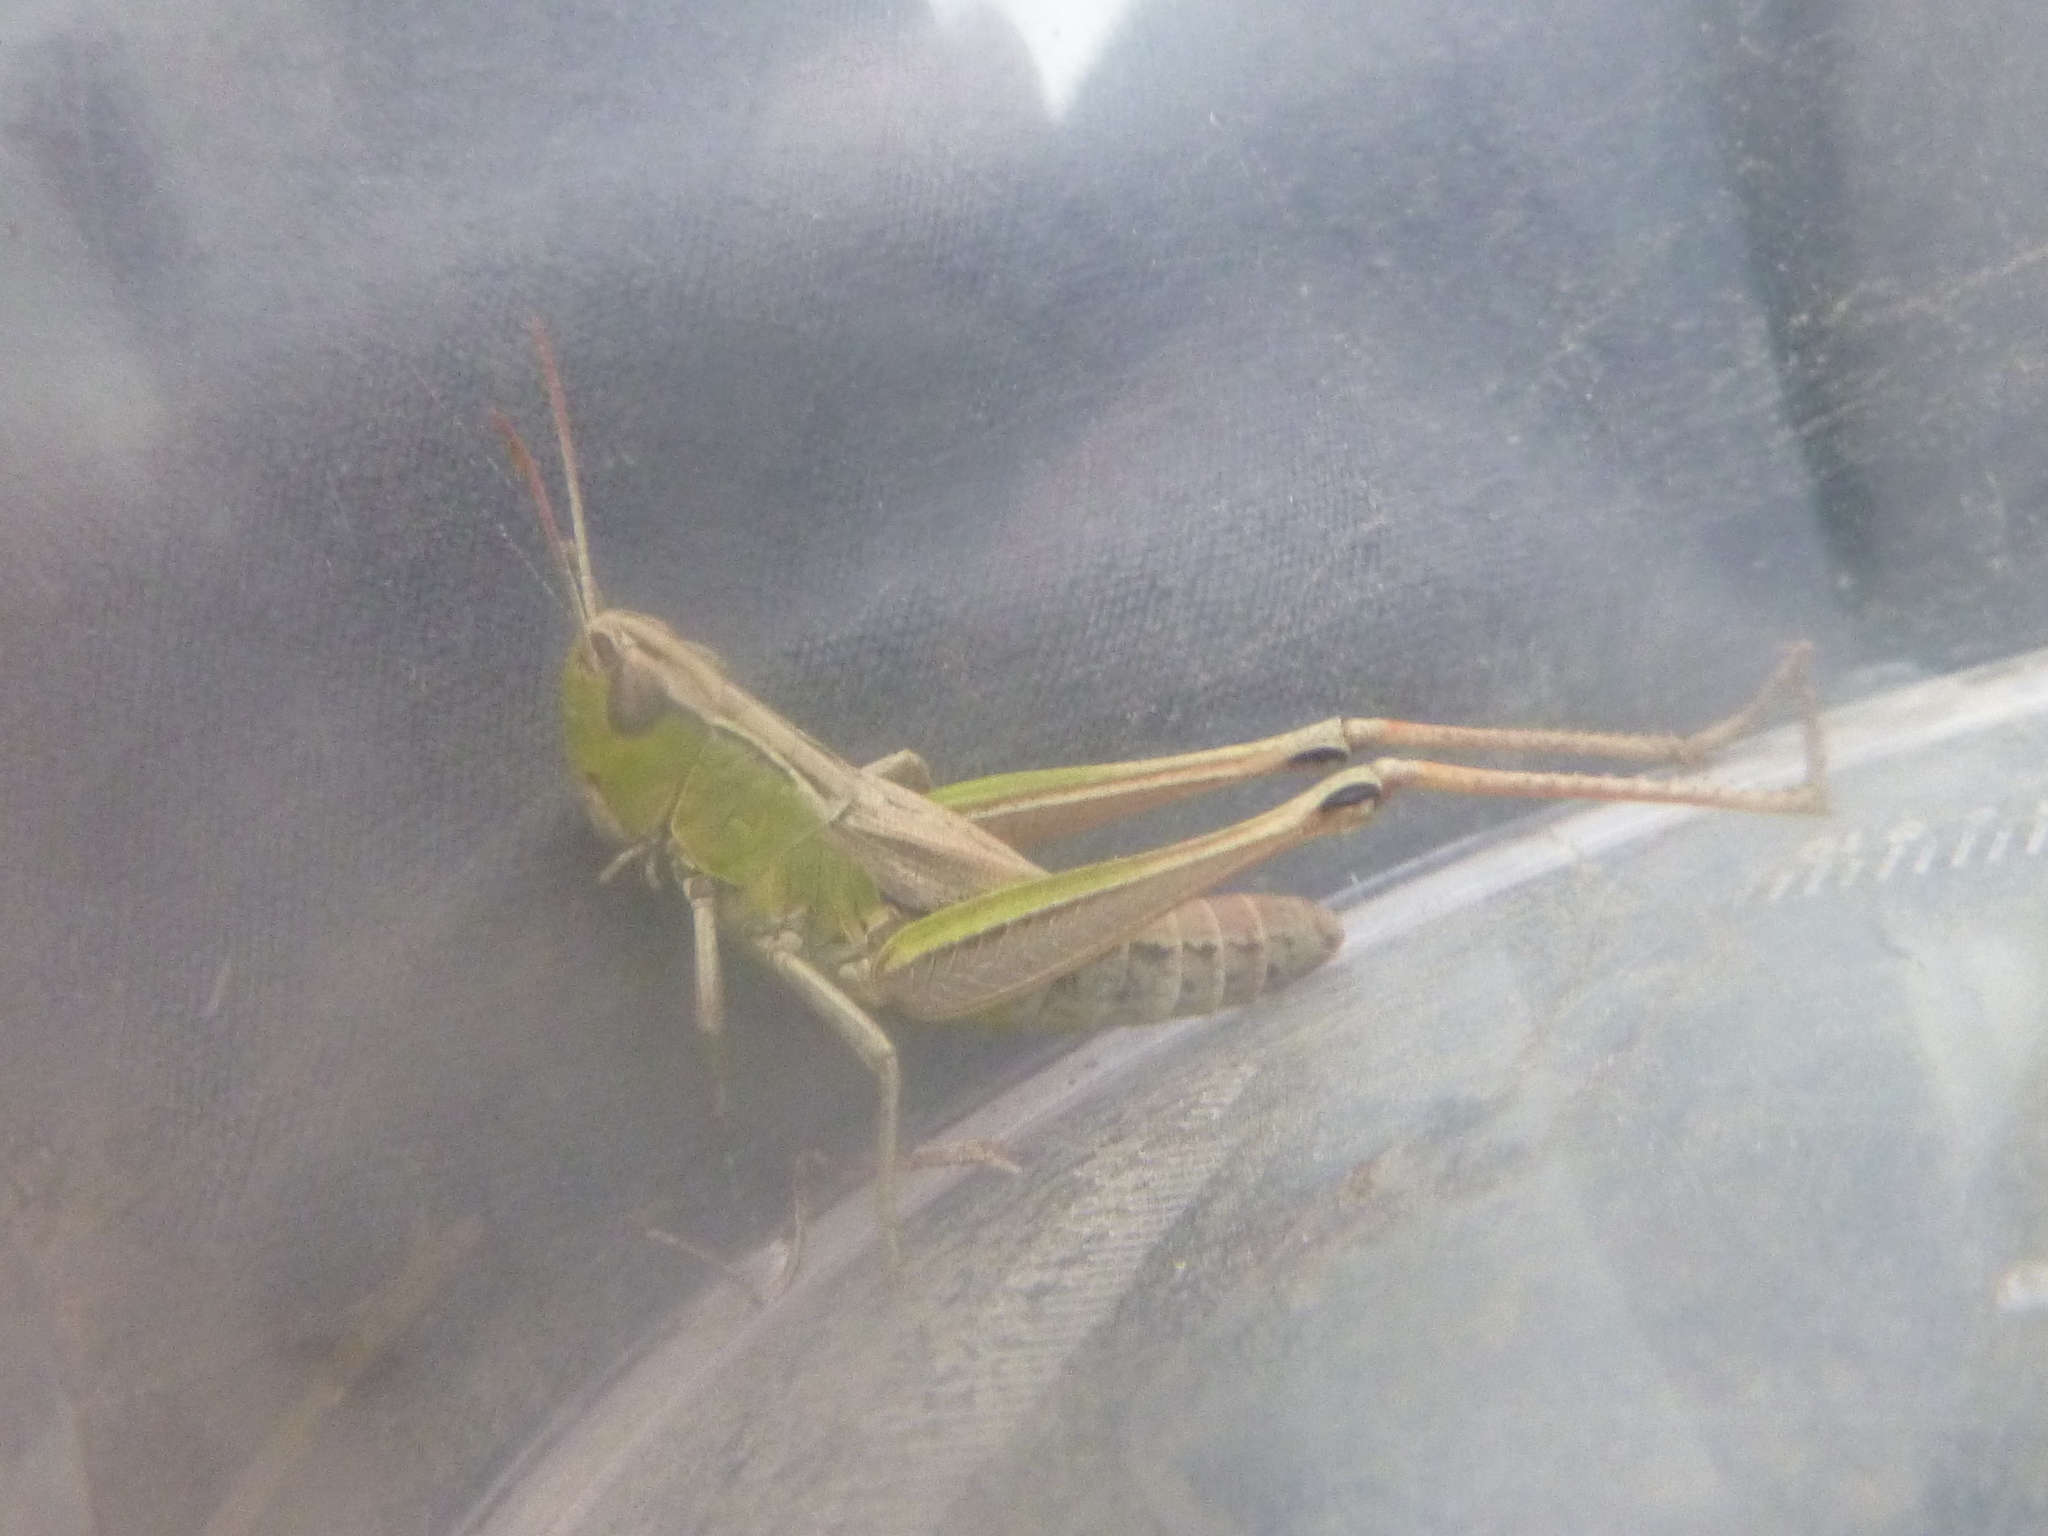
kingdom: Animalia
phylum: Arthropoda
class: Insecta
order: Orthoptera
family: Acrididae
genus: Pseudochorthippus
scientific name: Pseudochorthippus parallelus
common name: Meadow grasshopper
